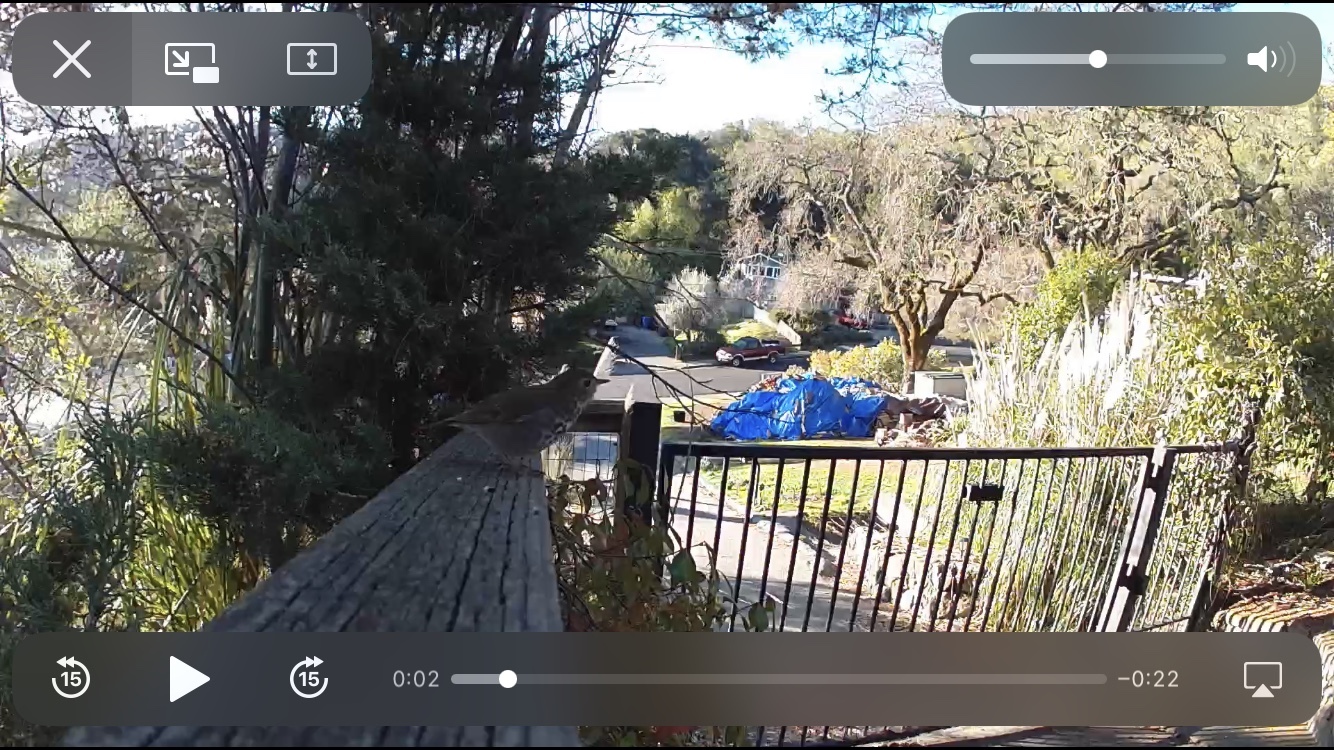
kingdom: Animalia
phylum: Chordata
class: Aves
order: Passeriformes
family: Turdidae
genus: Catharus
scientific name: Catharus guttatus
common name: Hermit thrush
